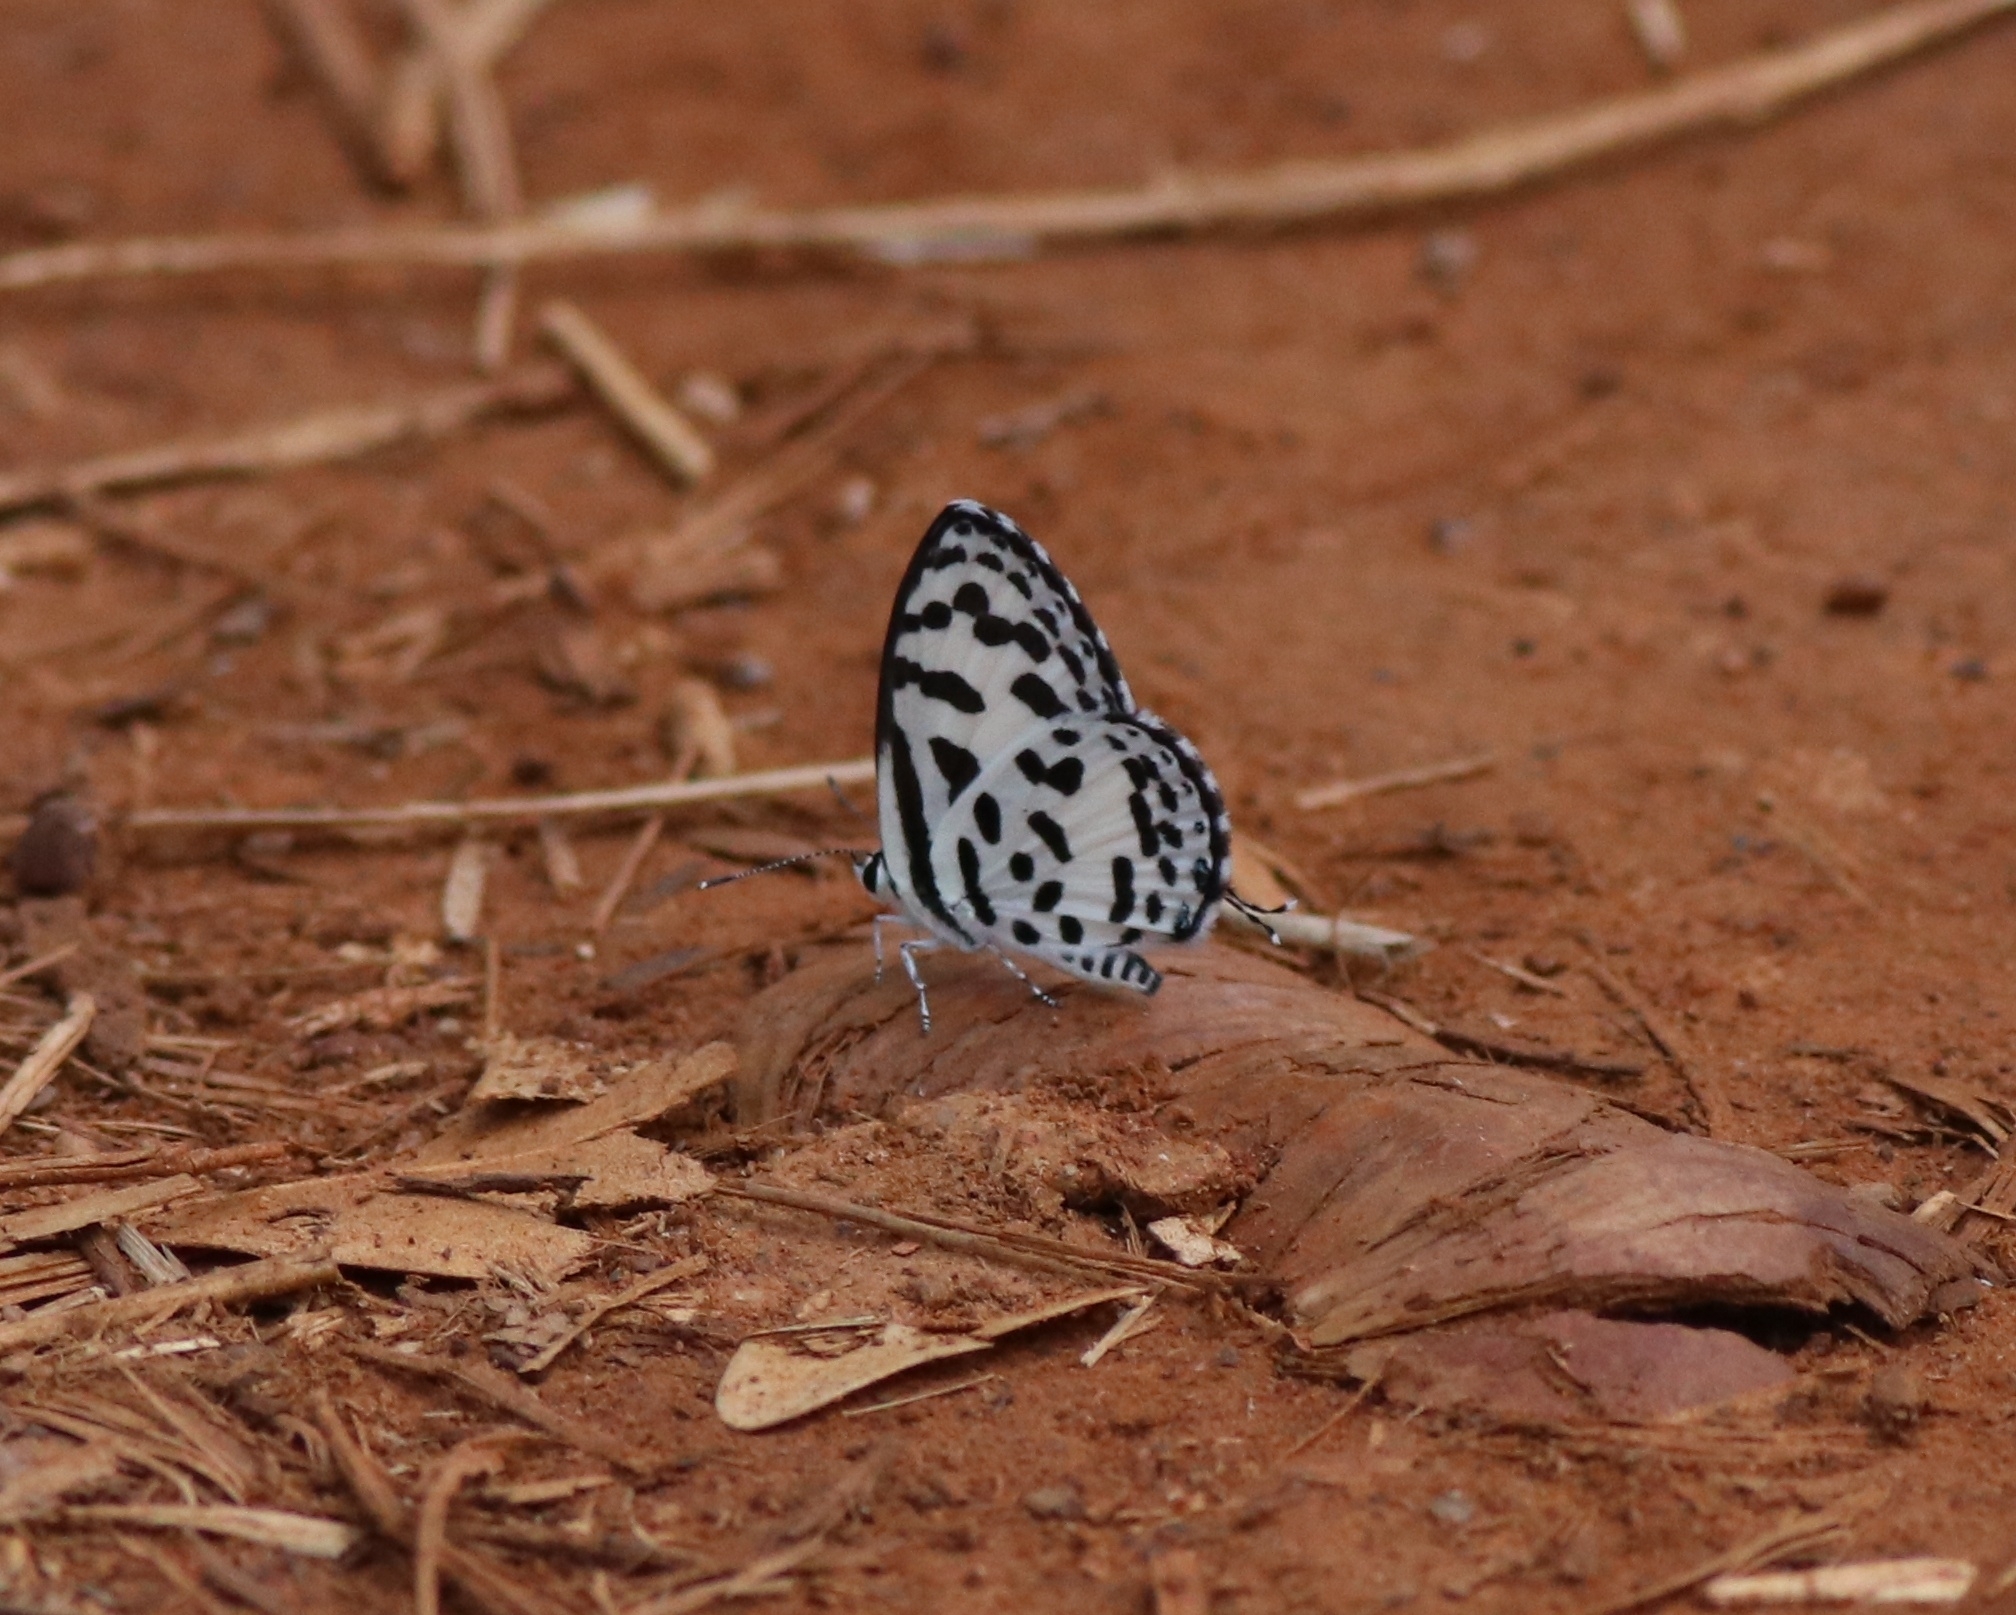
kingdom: Animalia
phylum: Arthropoda
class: Insecta
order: Lepidoptera
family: Lycaenidae
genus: Castalius
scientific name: Castalius rosimon
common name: Common pierrot
